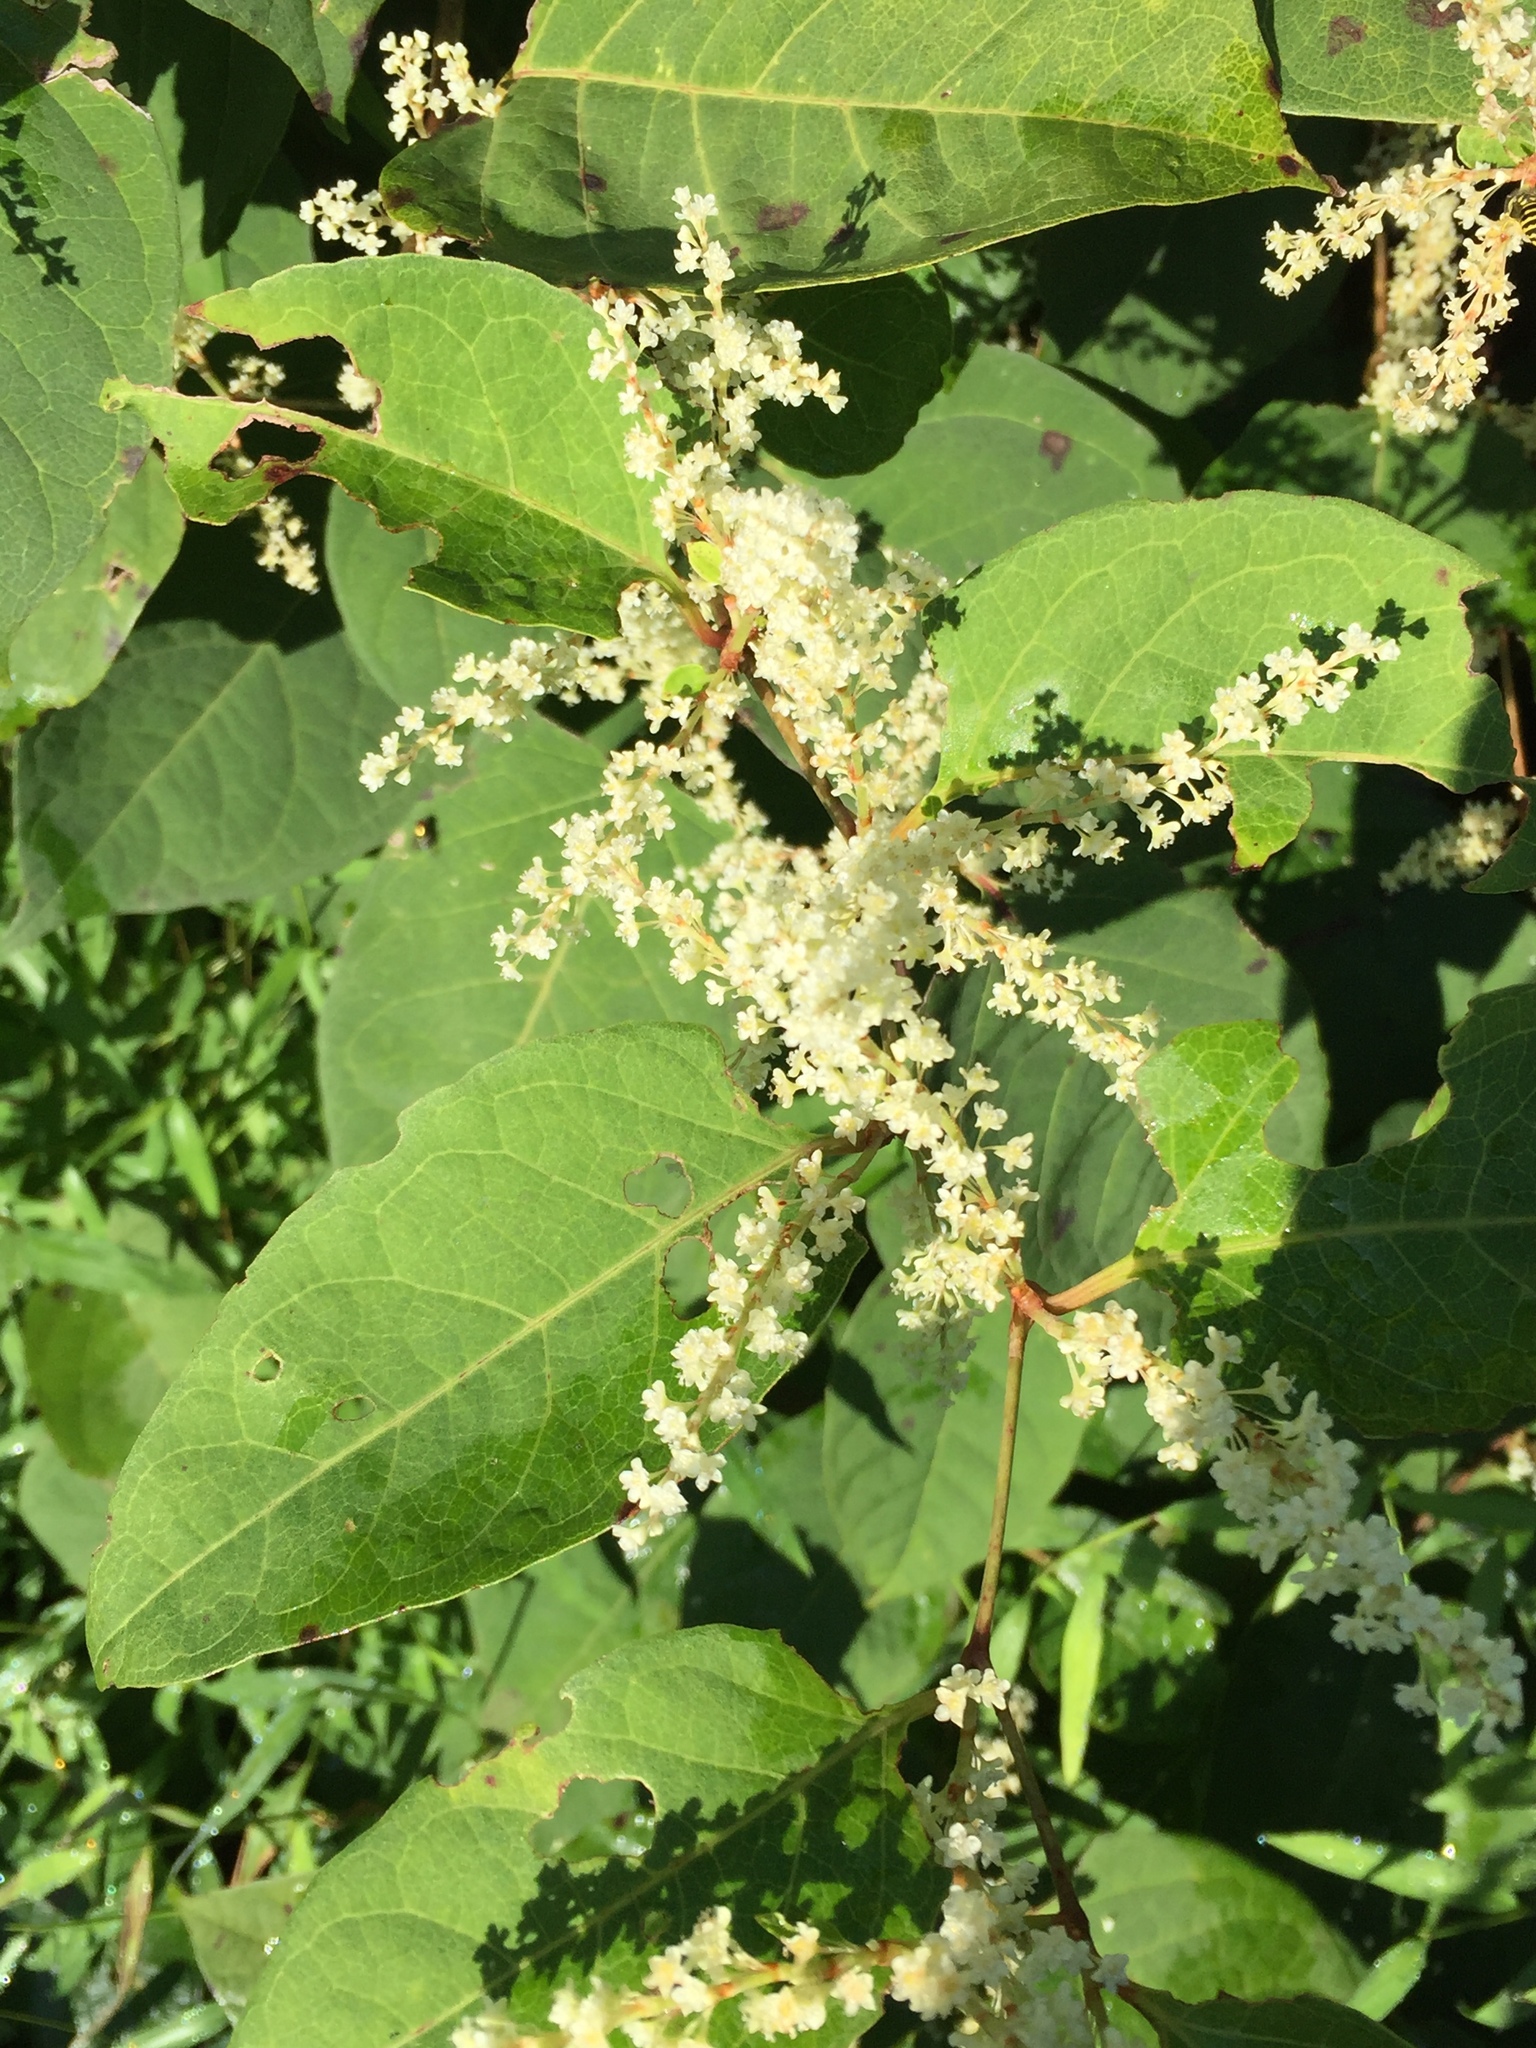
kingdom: Plantae
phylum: Tracheophyta
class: Magnoliopsida
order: Caryophyllales
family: Polygonaceae
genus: Reynoutria
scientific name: Reynoutria japonica
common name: Japanese knotweed
